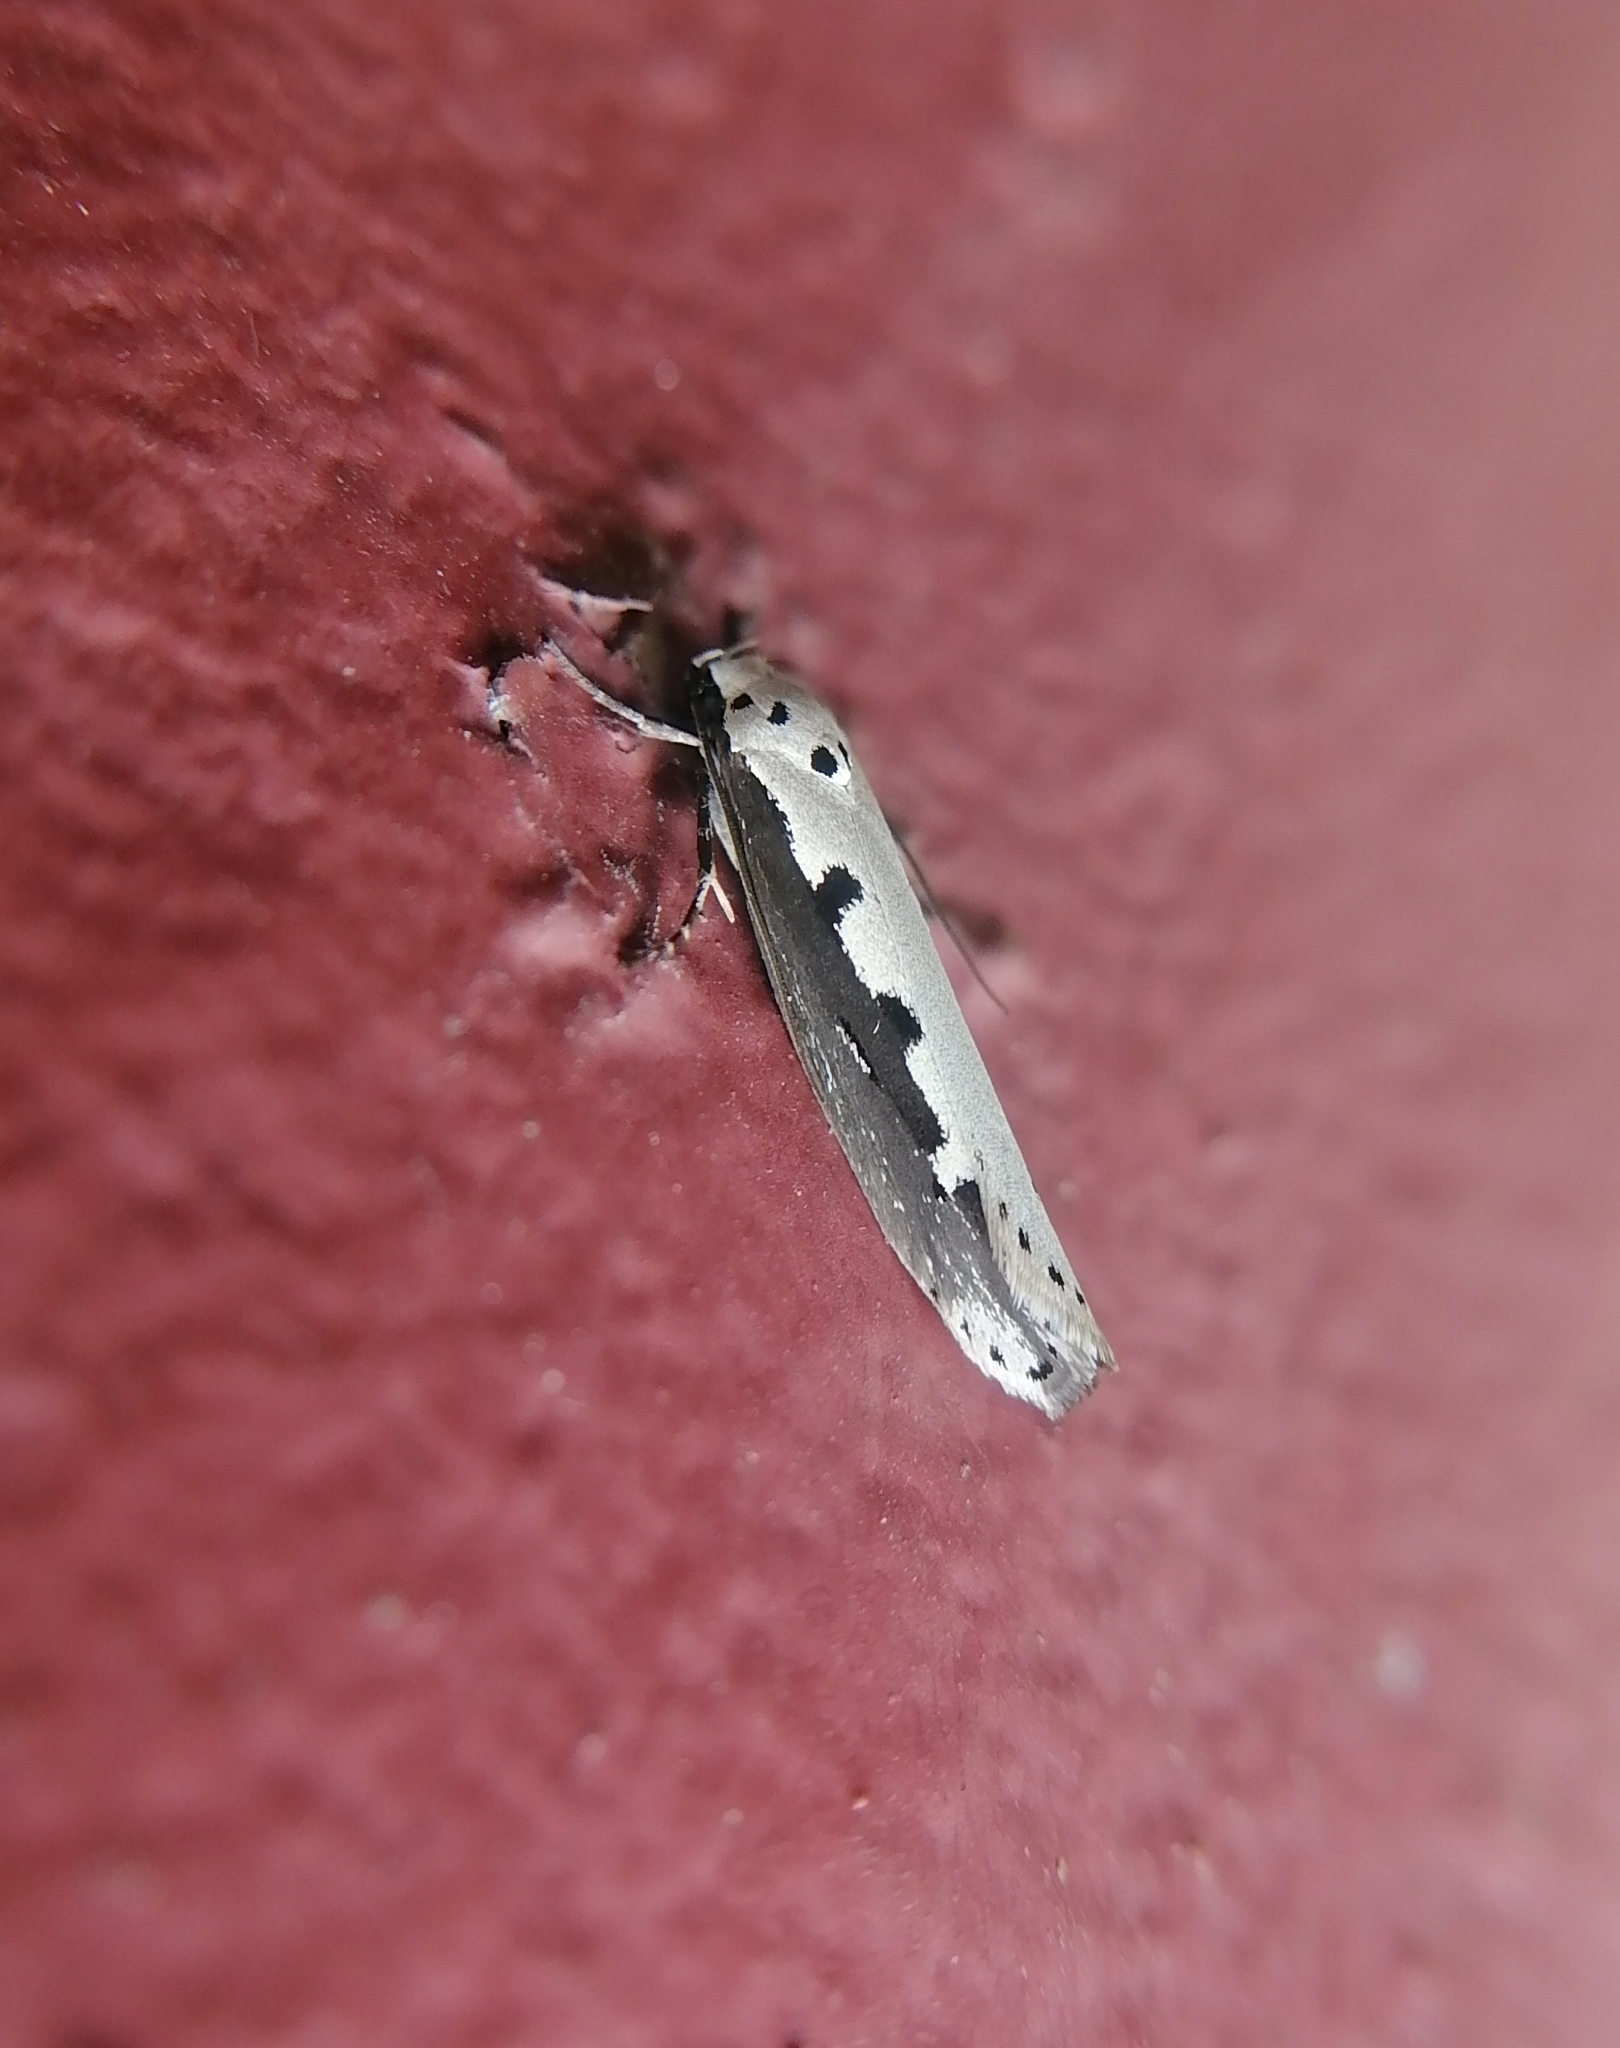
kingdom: Animalia
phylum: Arthropoda
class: Insecta
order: Lepidoptera
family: Ethmiidae
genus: Ethmia
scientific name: Ethmia bipunctella
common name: Bordered ermel
